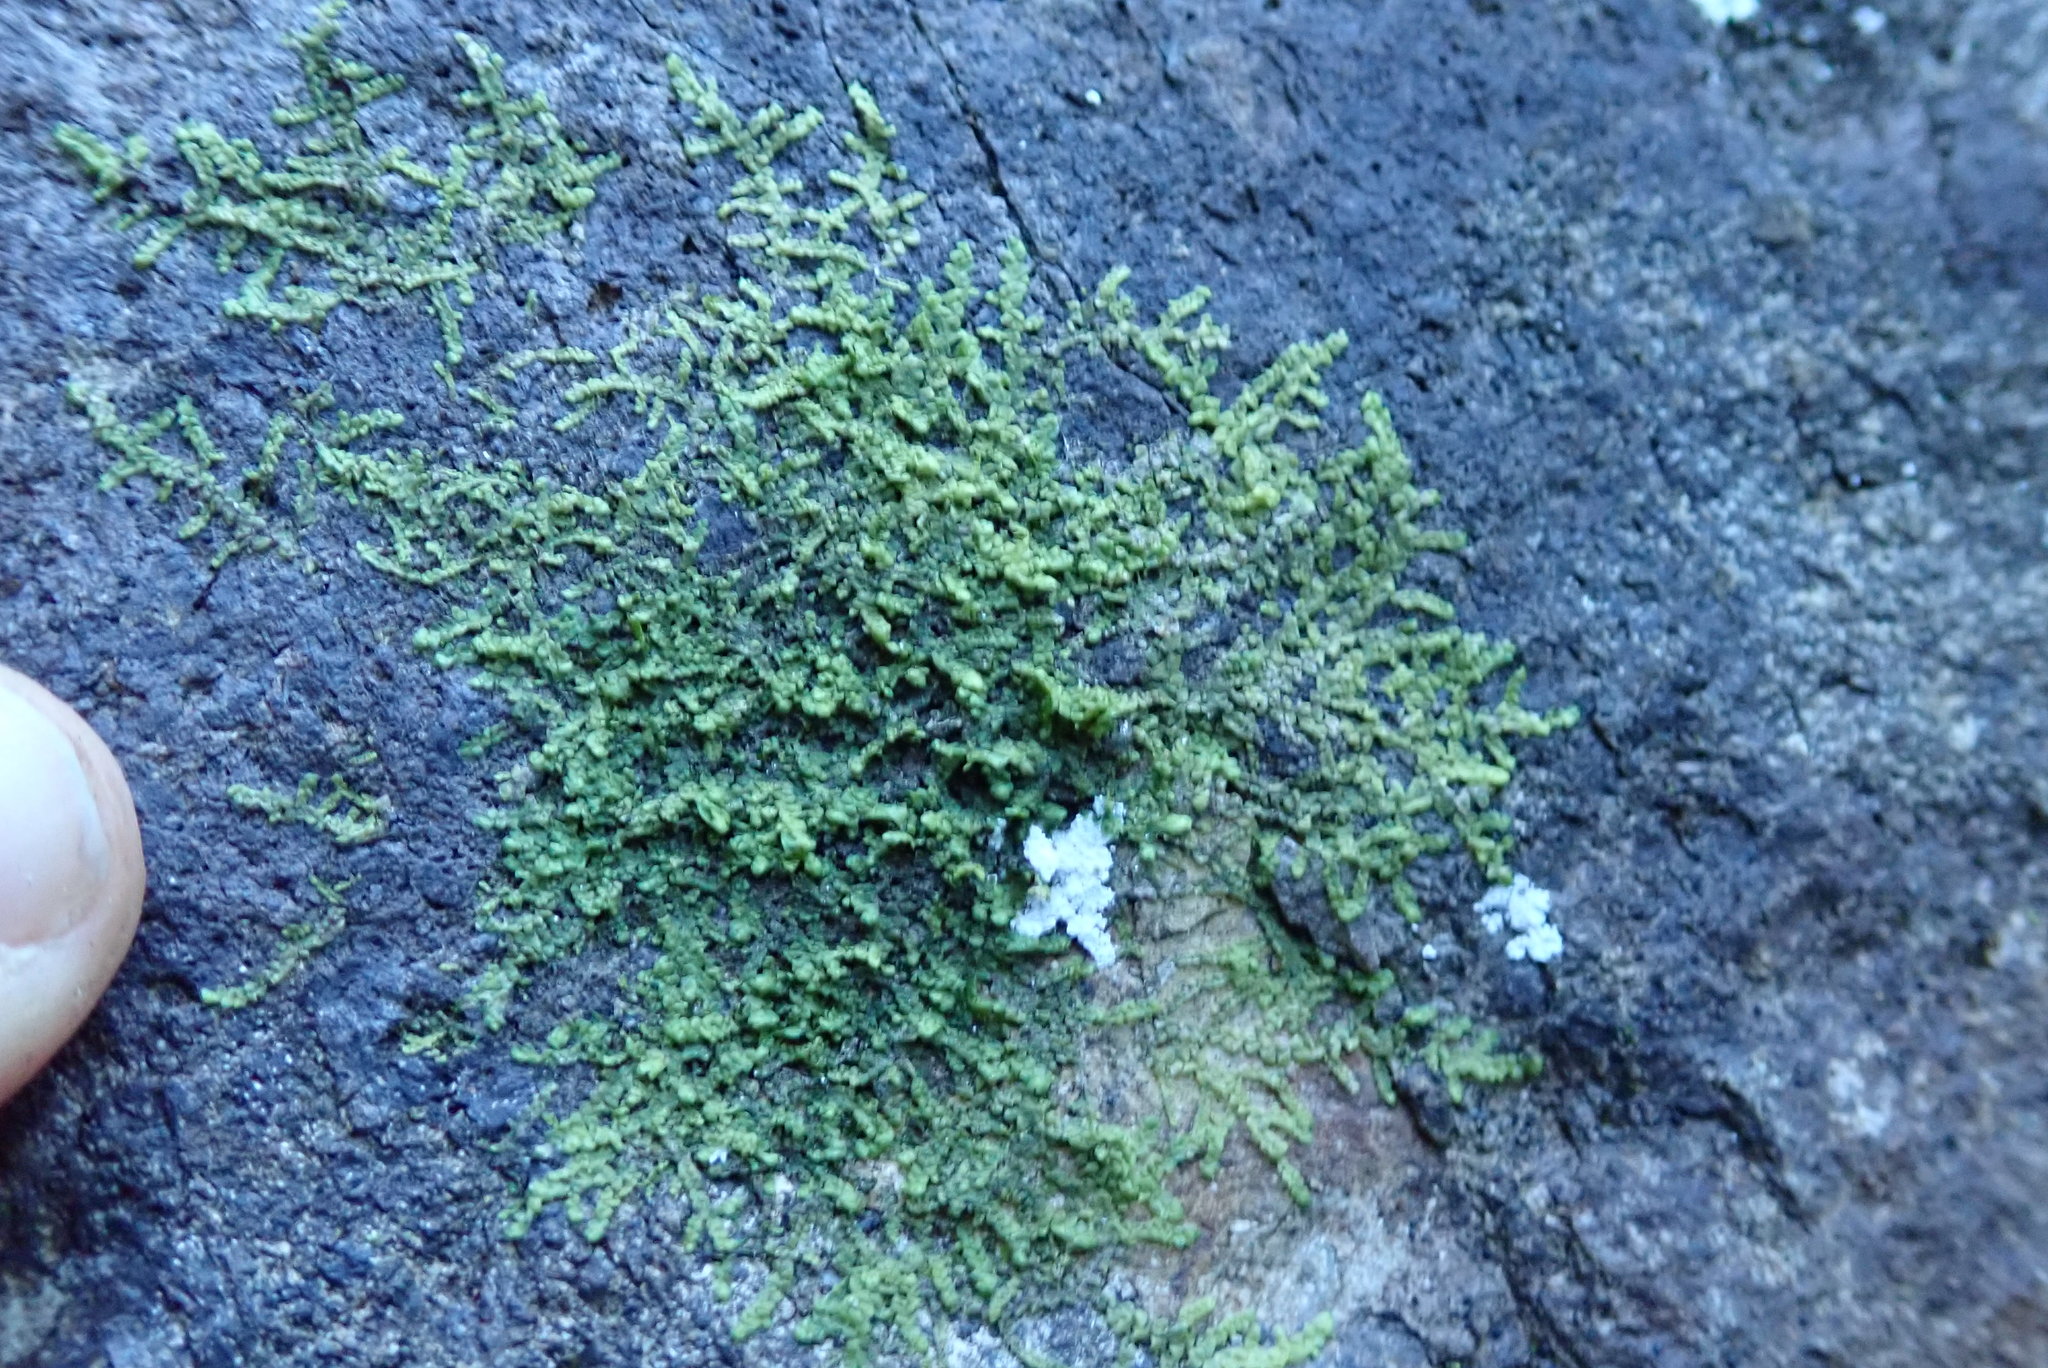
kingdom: Plantae
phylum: Marchantiophyta
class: Jungermanniopsida
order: Porellales
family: Radulaceae
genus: Radula
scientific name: Radula complanata
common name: Flat-leaved scalewort
